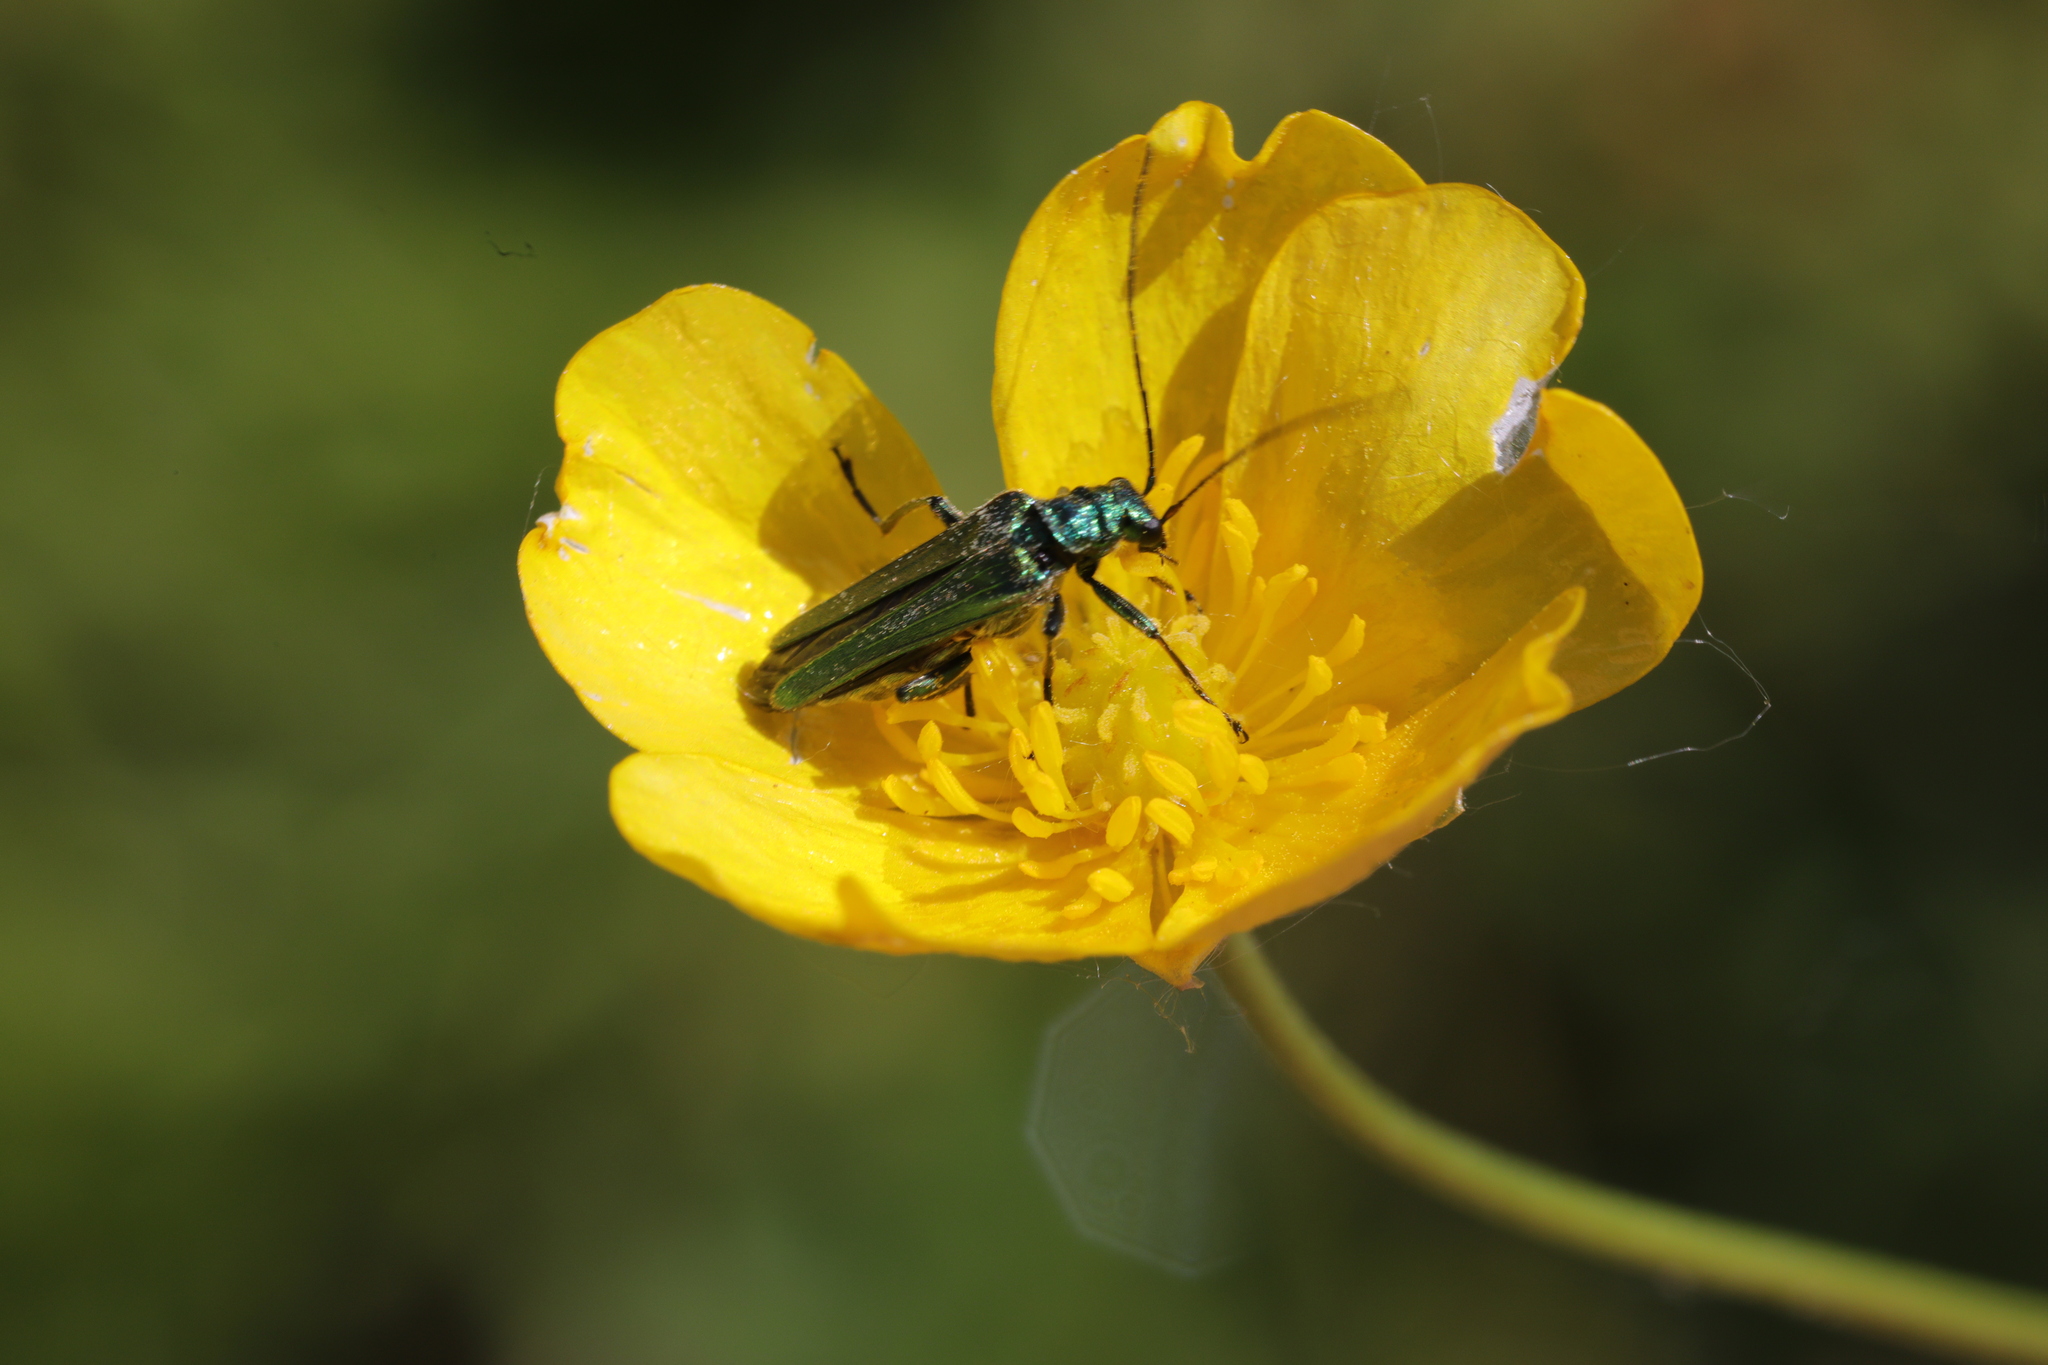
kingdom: Animalia
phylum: Arthropoda
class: Insecta
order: Coleoptera
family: Oedemeridae
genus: Oedemera
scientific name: Oedemera nobilis
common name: Swollen-thighed beetle
